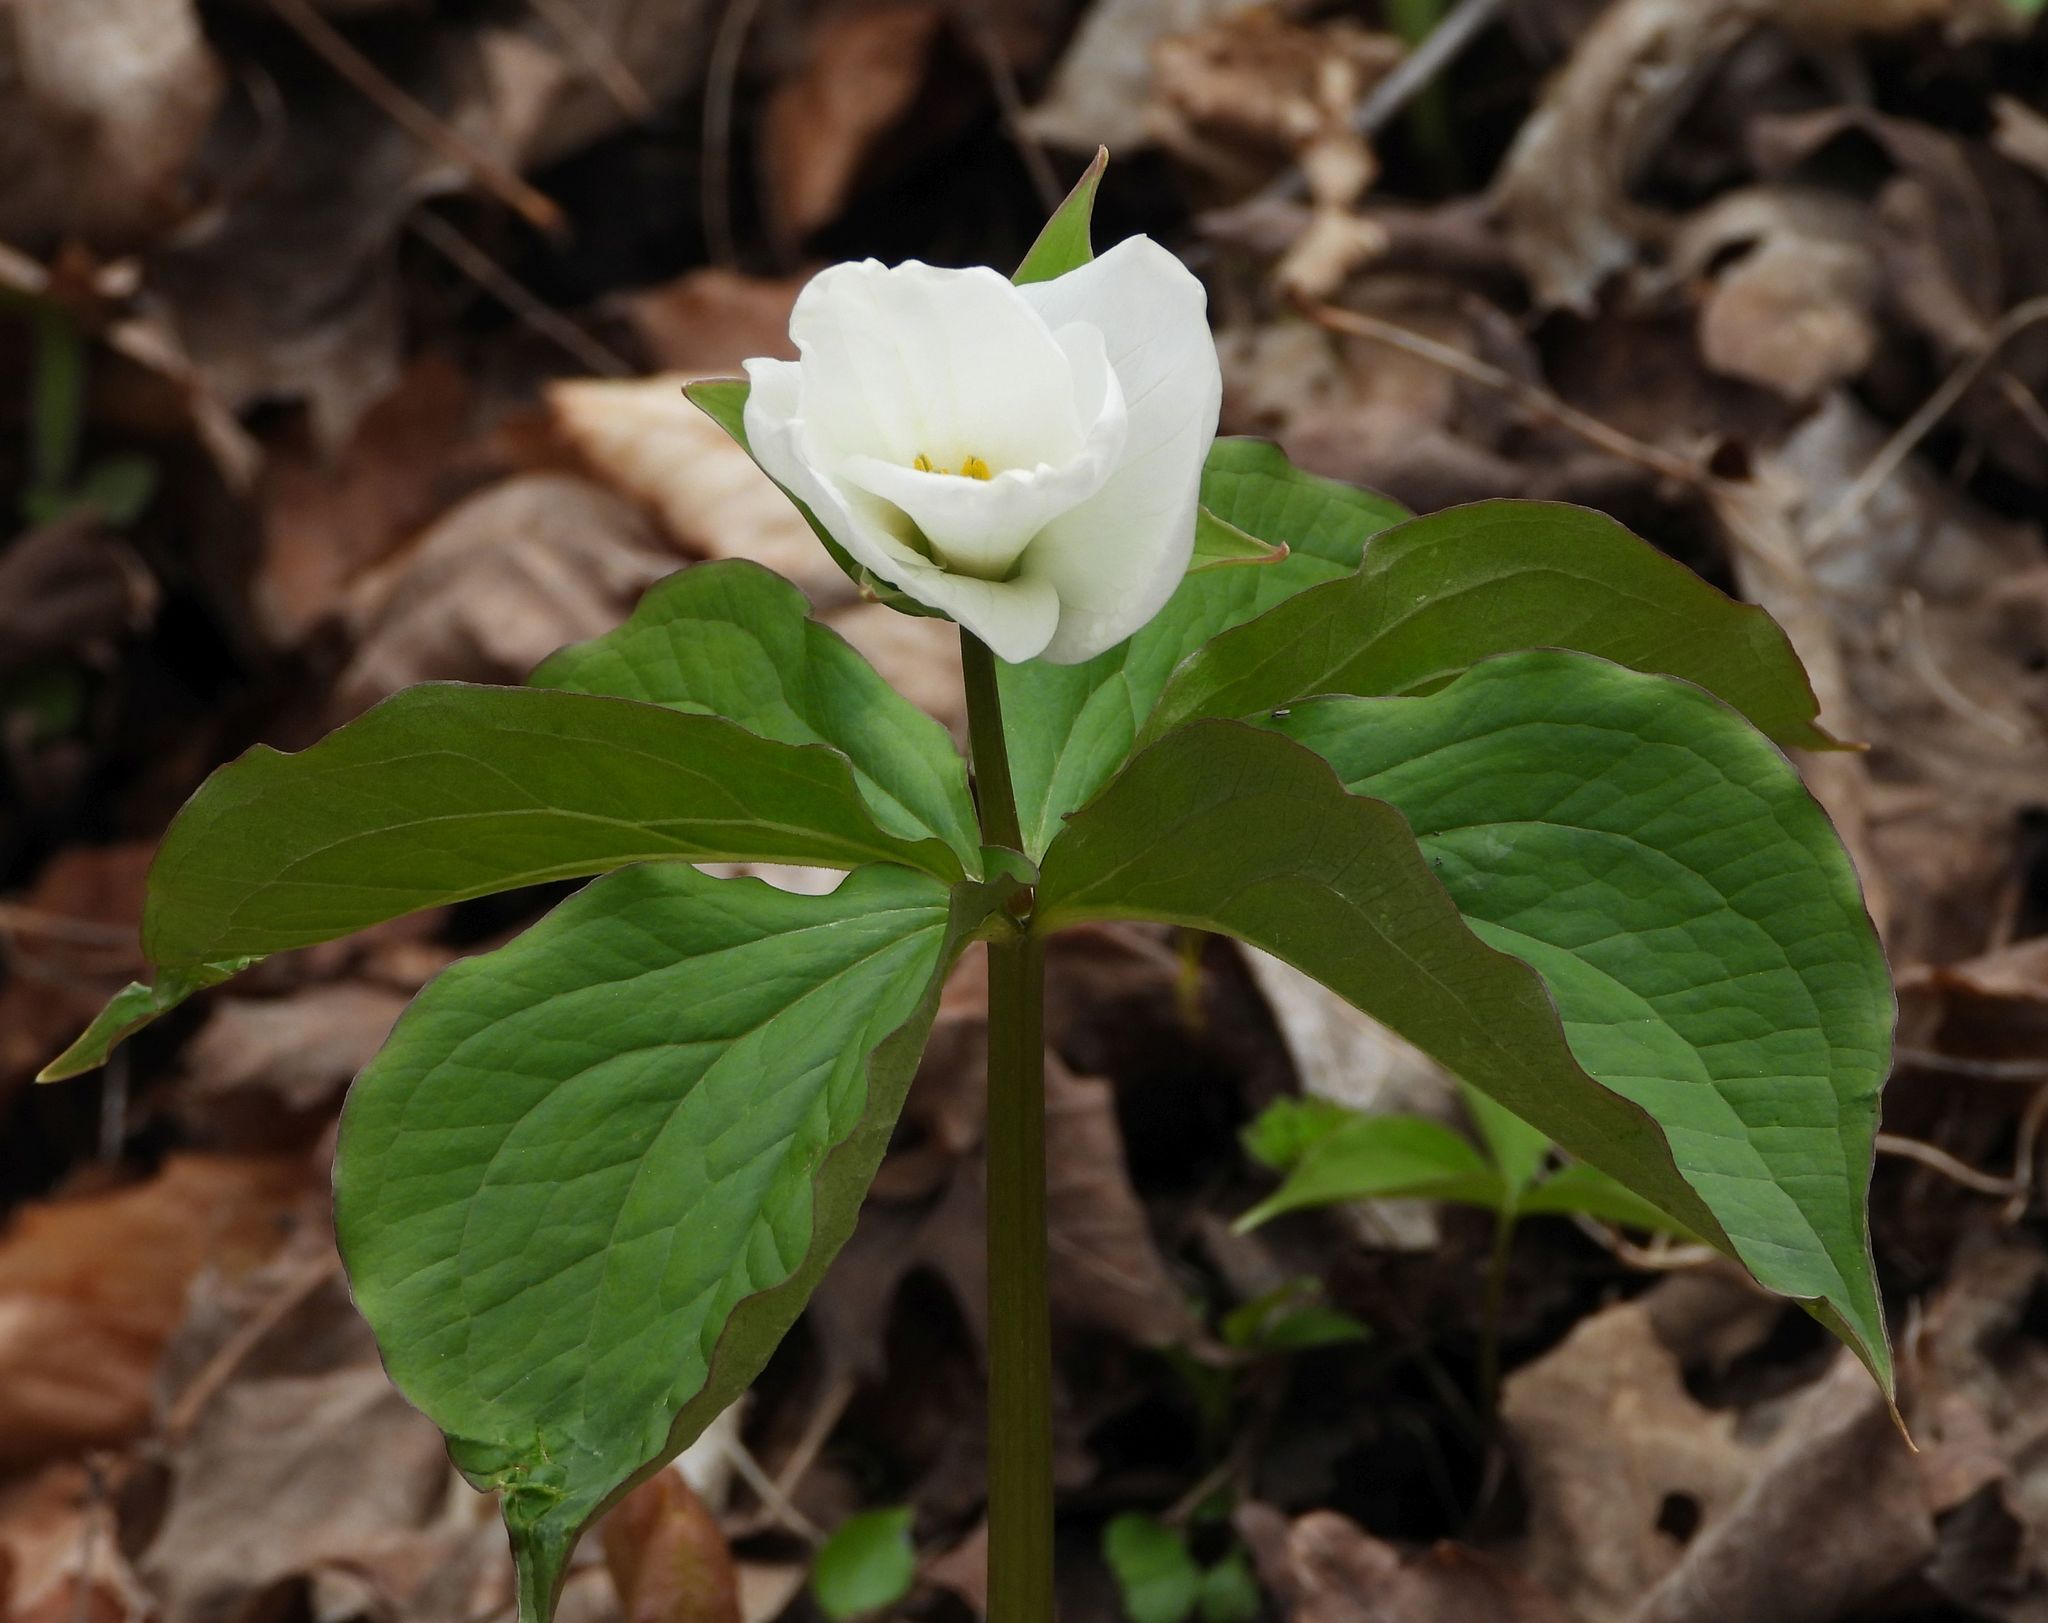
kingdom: Plantae
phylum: Tracheophyta
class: Liliopsida
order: Liliales
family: Melanthiaceae
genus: Trillium
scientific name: Trillium grandiflorum
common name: Great white trillium
